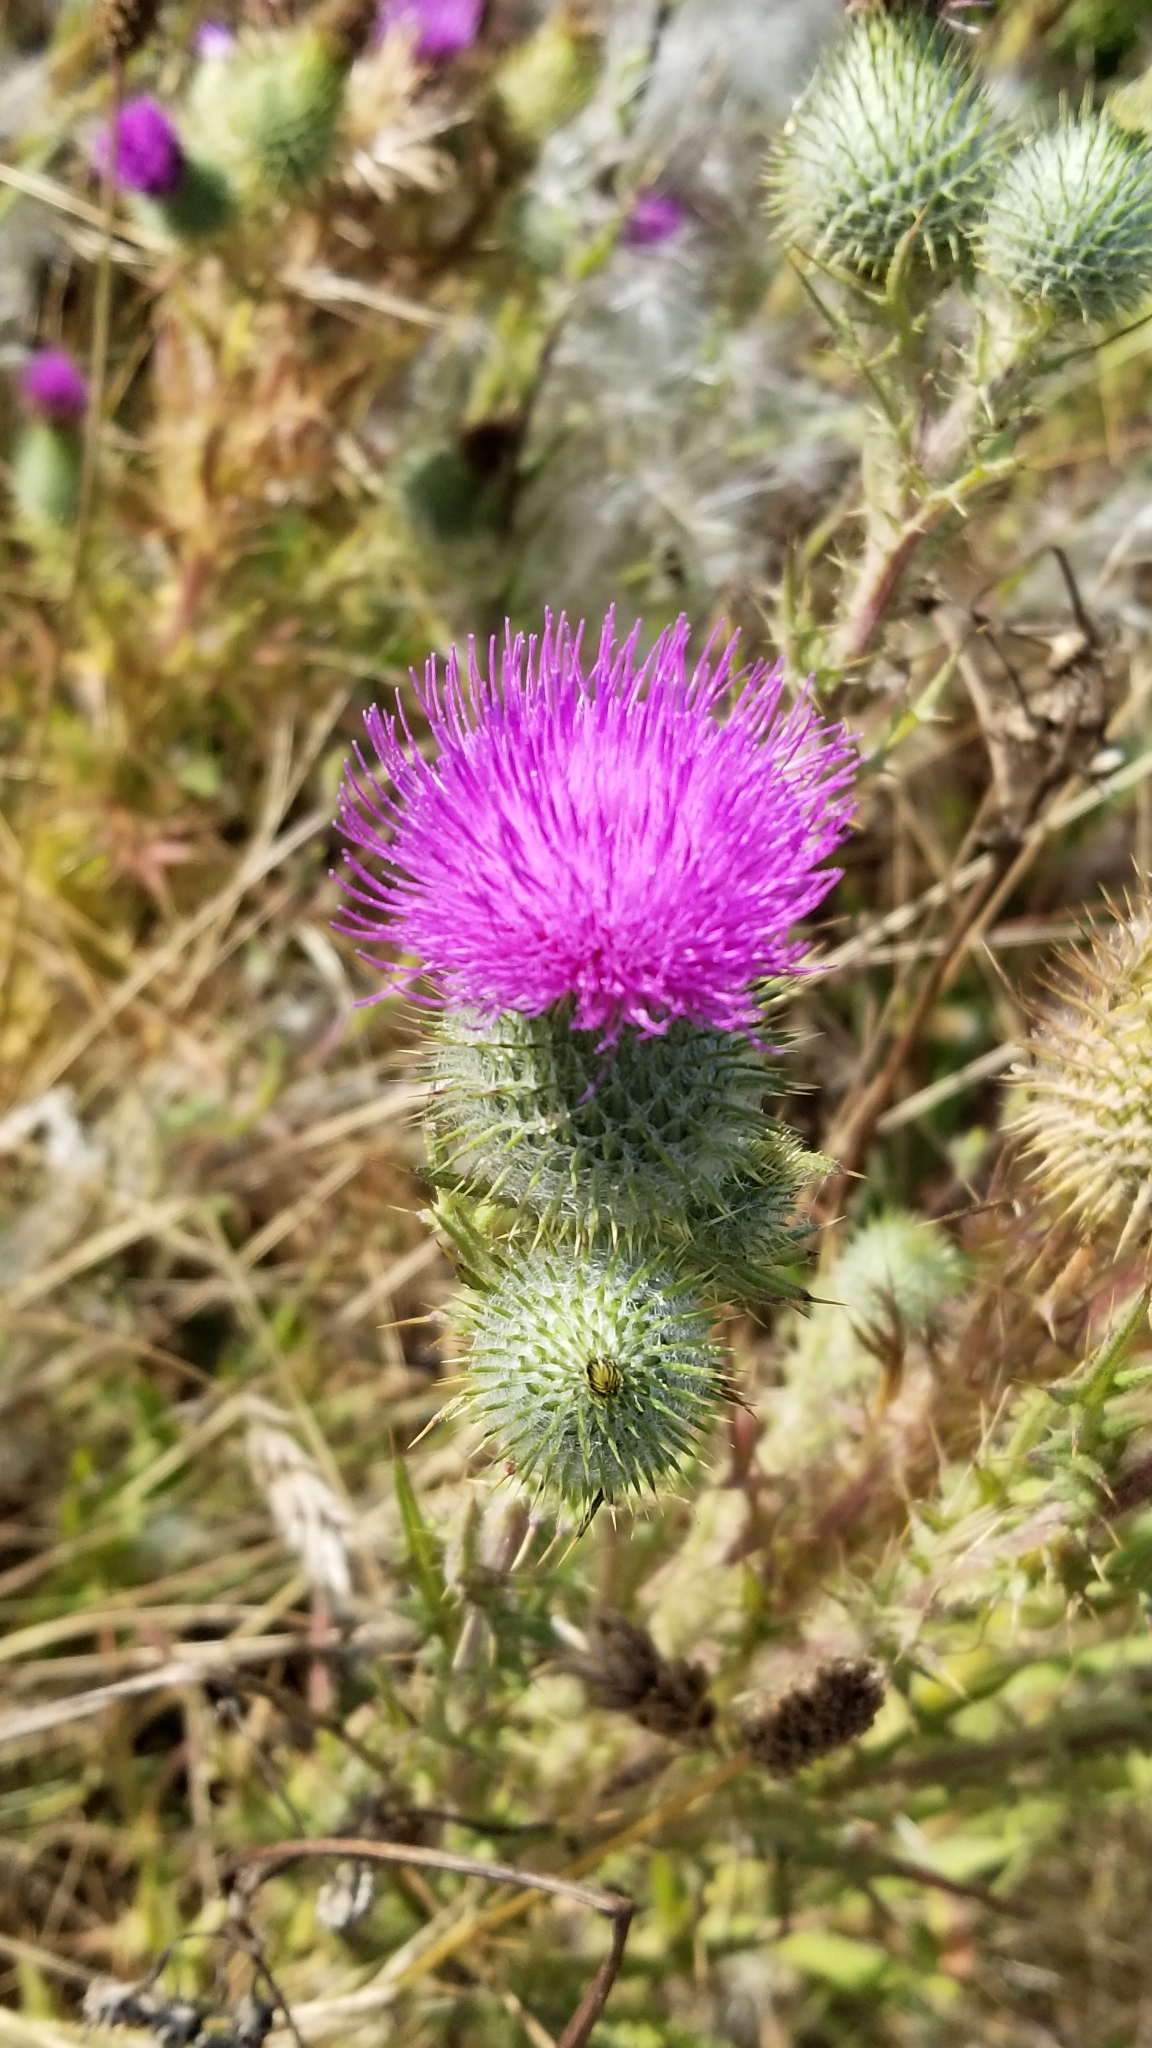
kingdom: Plantae
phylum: Tracheophyta
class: Magnoliopsida
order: Asterales
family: Asteraceae
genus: Cirsium
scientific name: Cirsium vulgare
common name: Bull thistle
